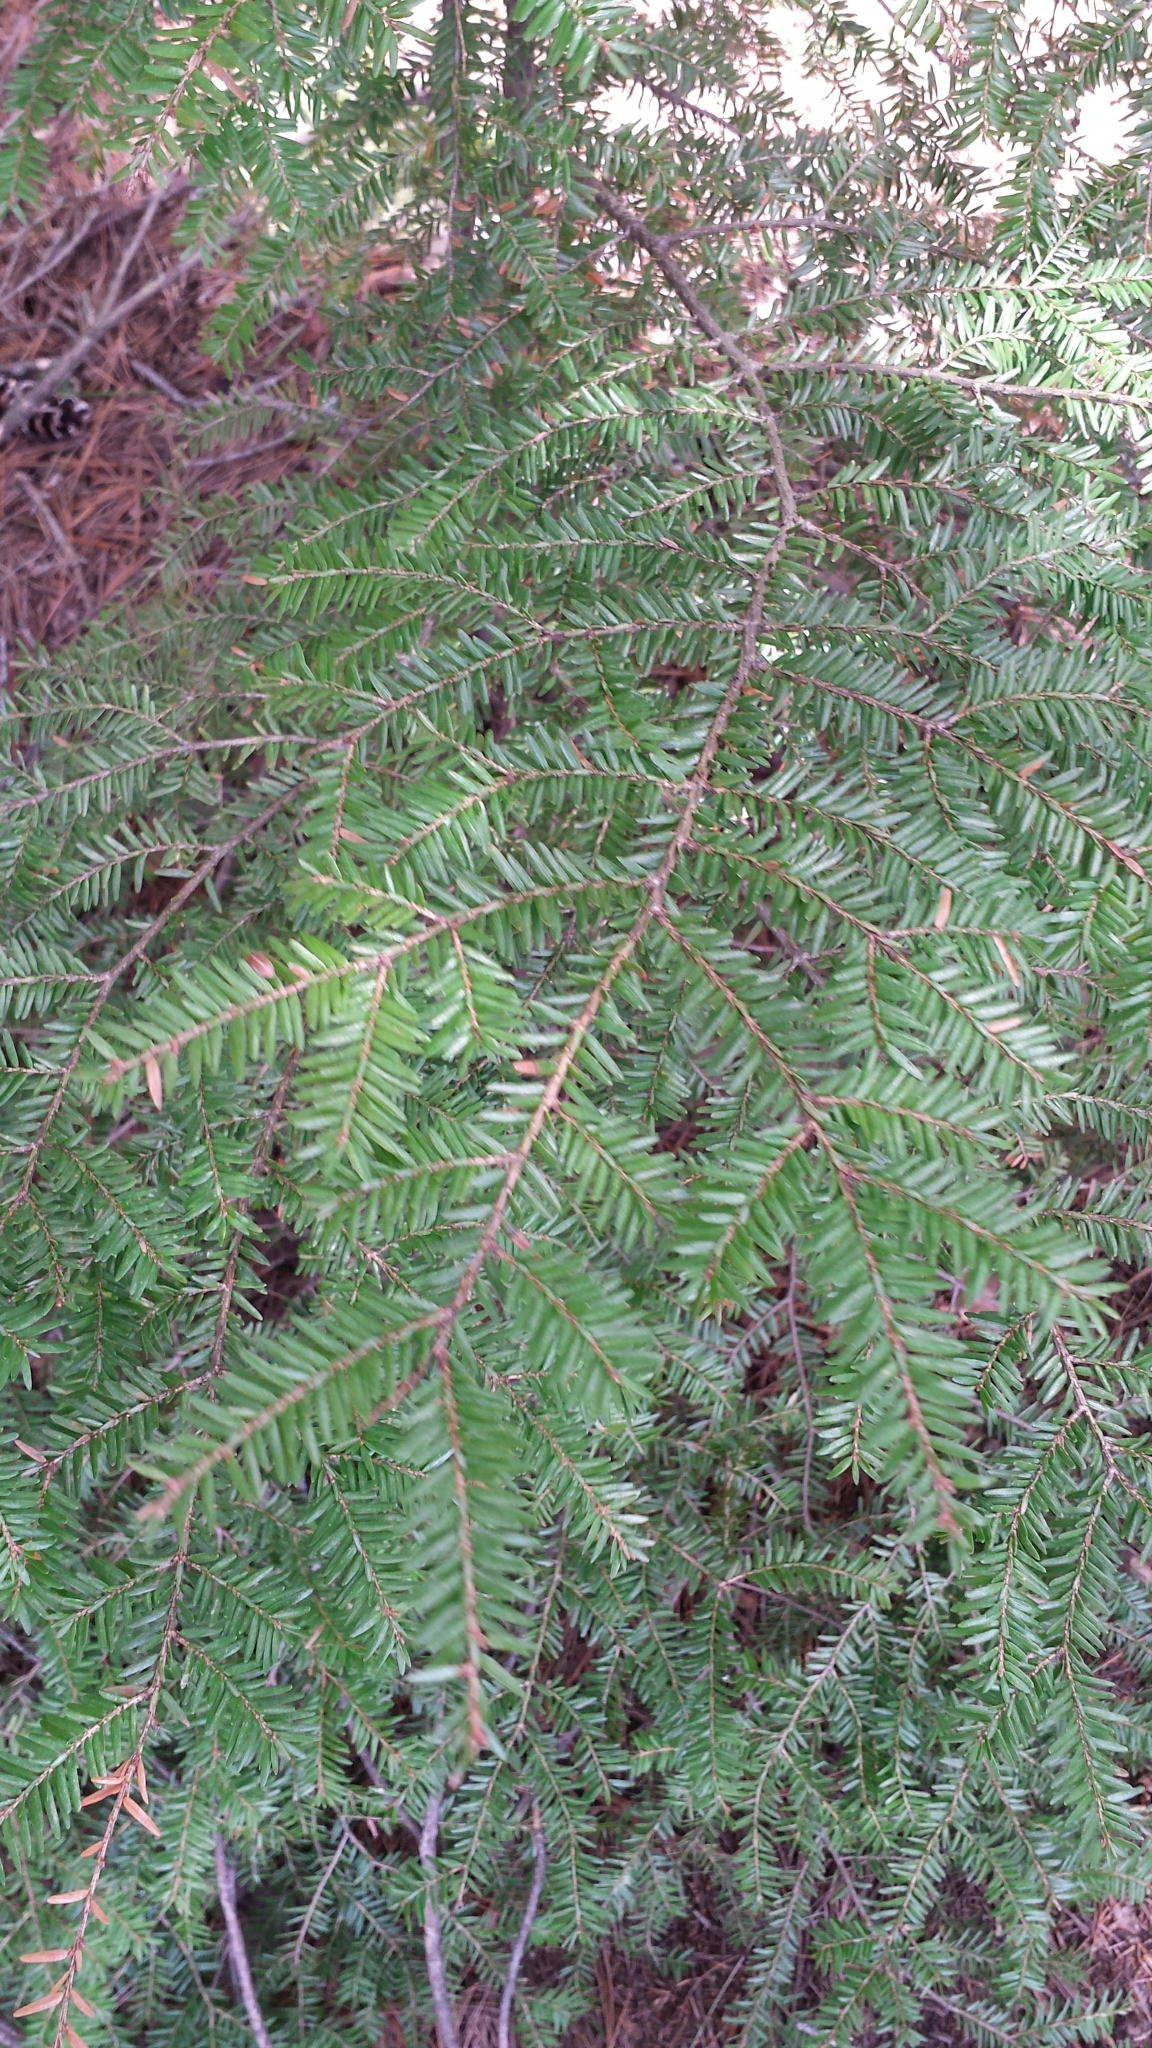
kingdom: Plantae
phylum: Tracheophyta
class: Pinopsida
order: Pinales
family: Pinaceae
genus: Tsuga
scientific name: Tsuga canadensis
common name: Eastern hemlock
